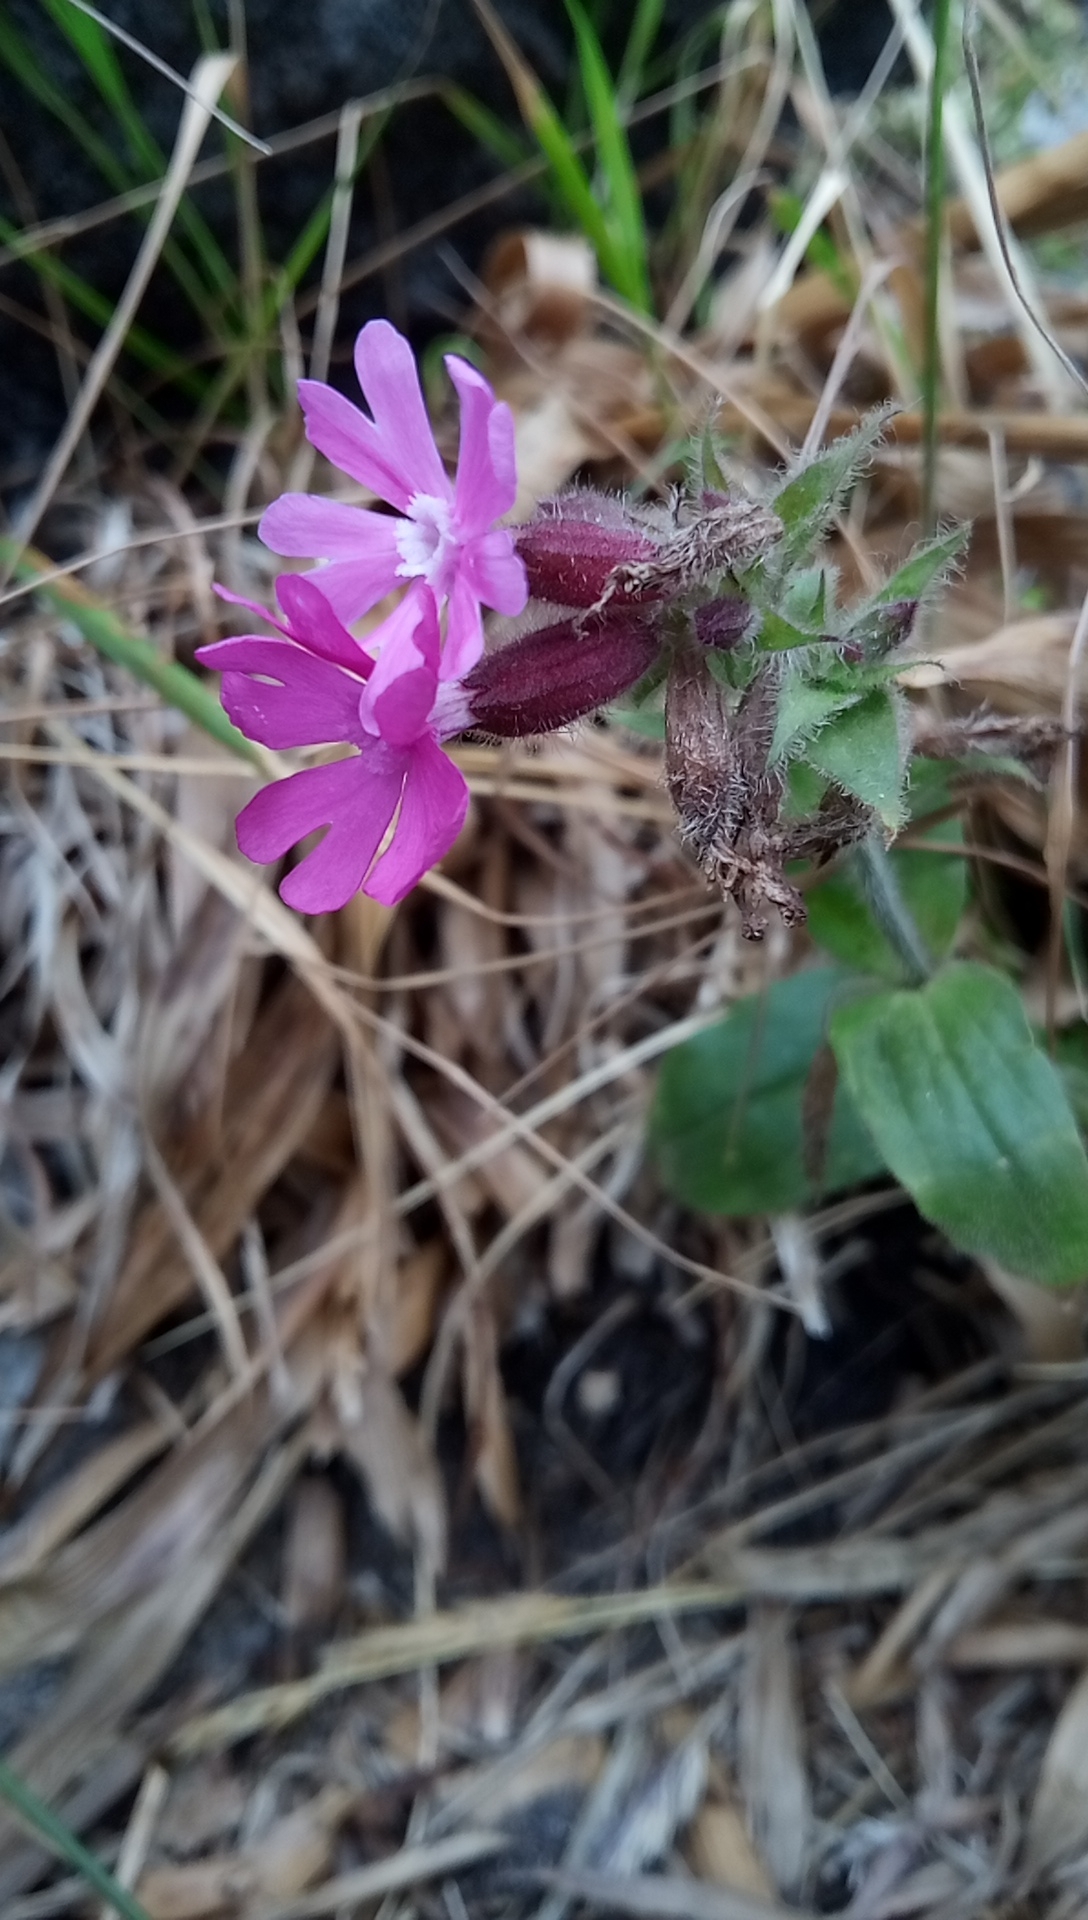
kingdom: Plantae
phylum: Tracheophyta
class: Magnoliopsida
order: Caryophyllales
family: Caryophyllaceae
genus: Silene
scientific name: Silene dioica
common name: Red campion
